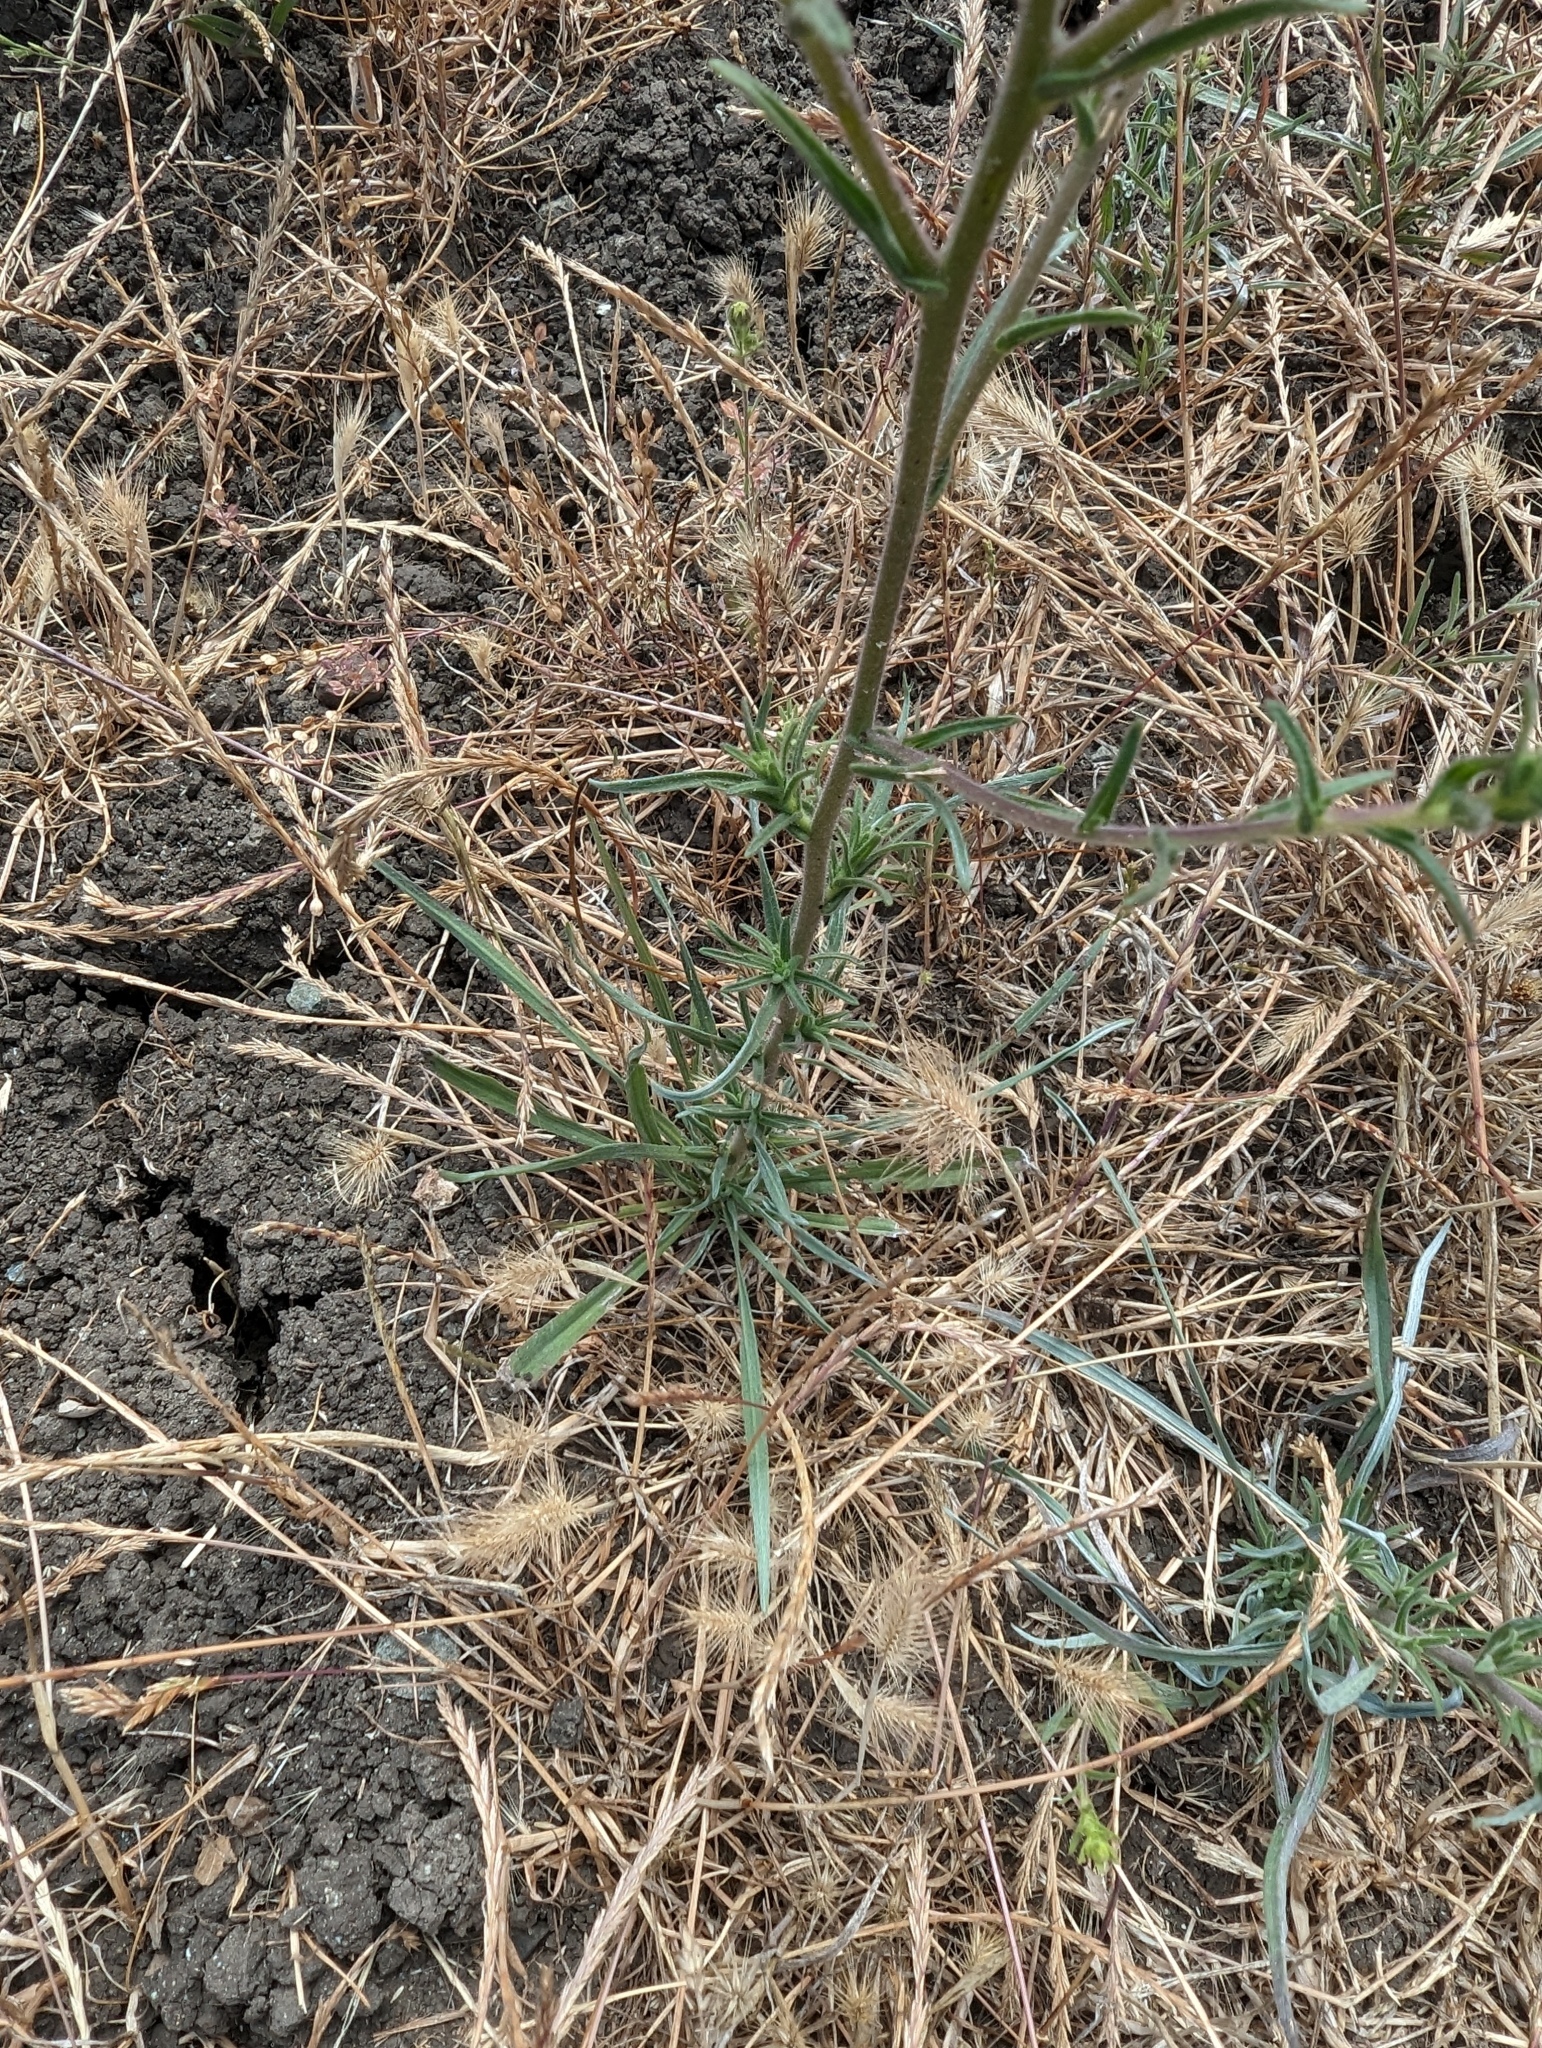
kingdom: Plantae
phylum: Tracheophyta
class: Magnoliopsida
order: Asterales
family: Asteraceae
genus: Hemizonia
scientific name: Hemizonia congesta
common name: Hayfield tarweed
